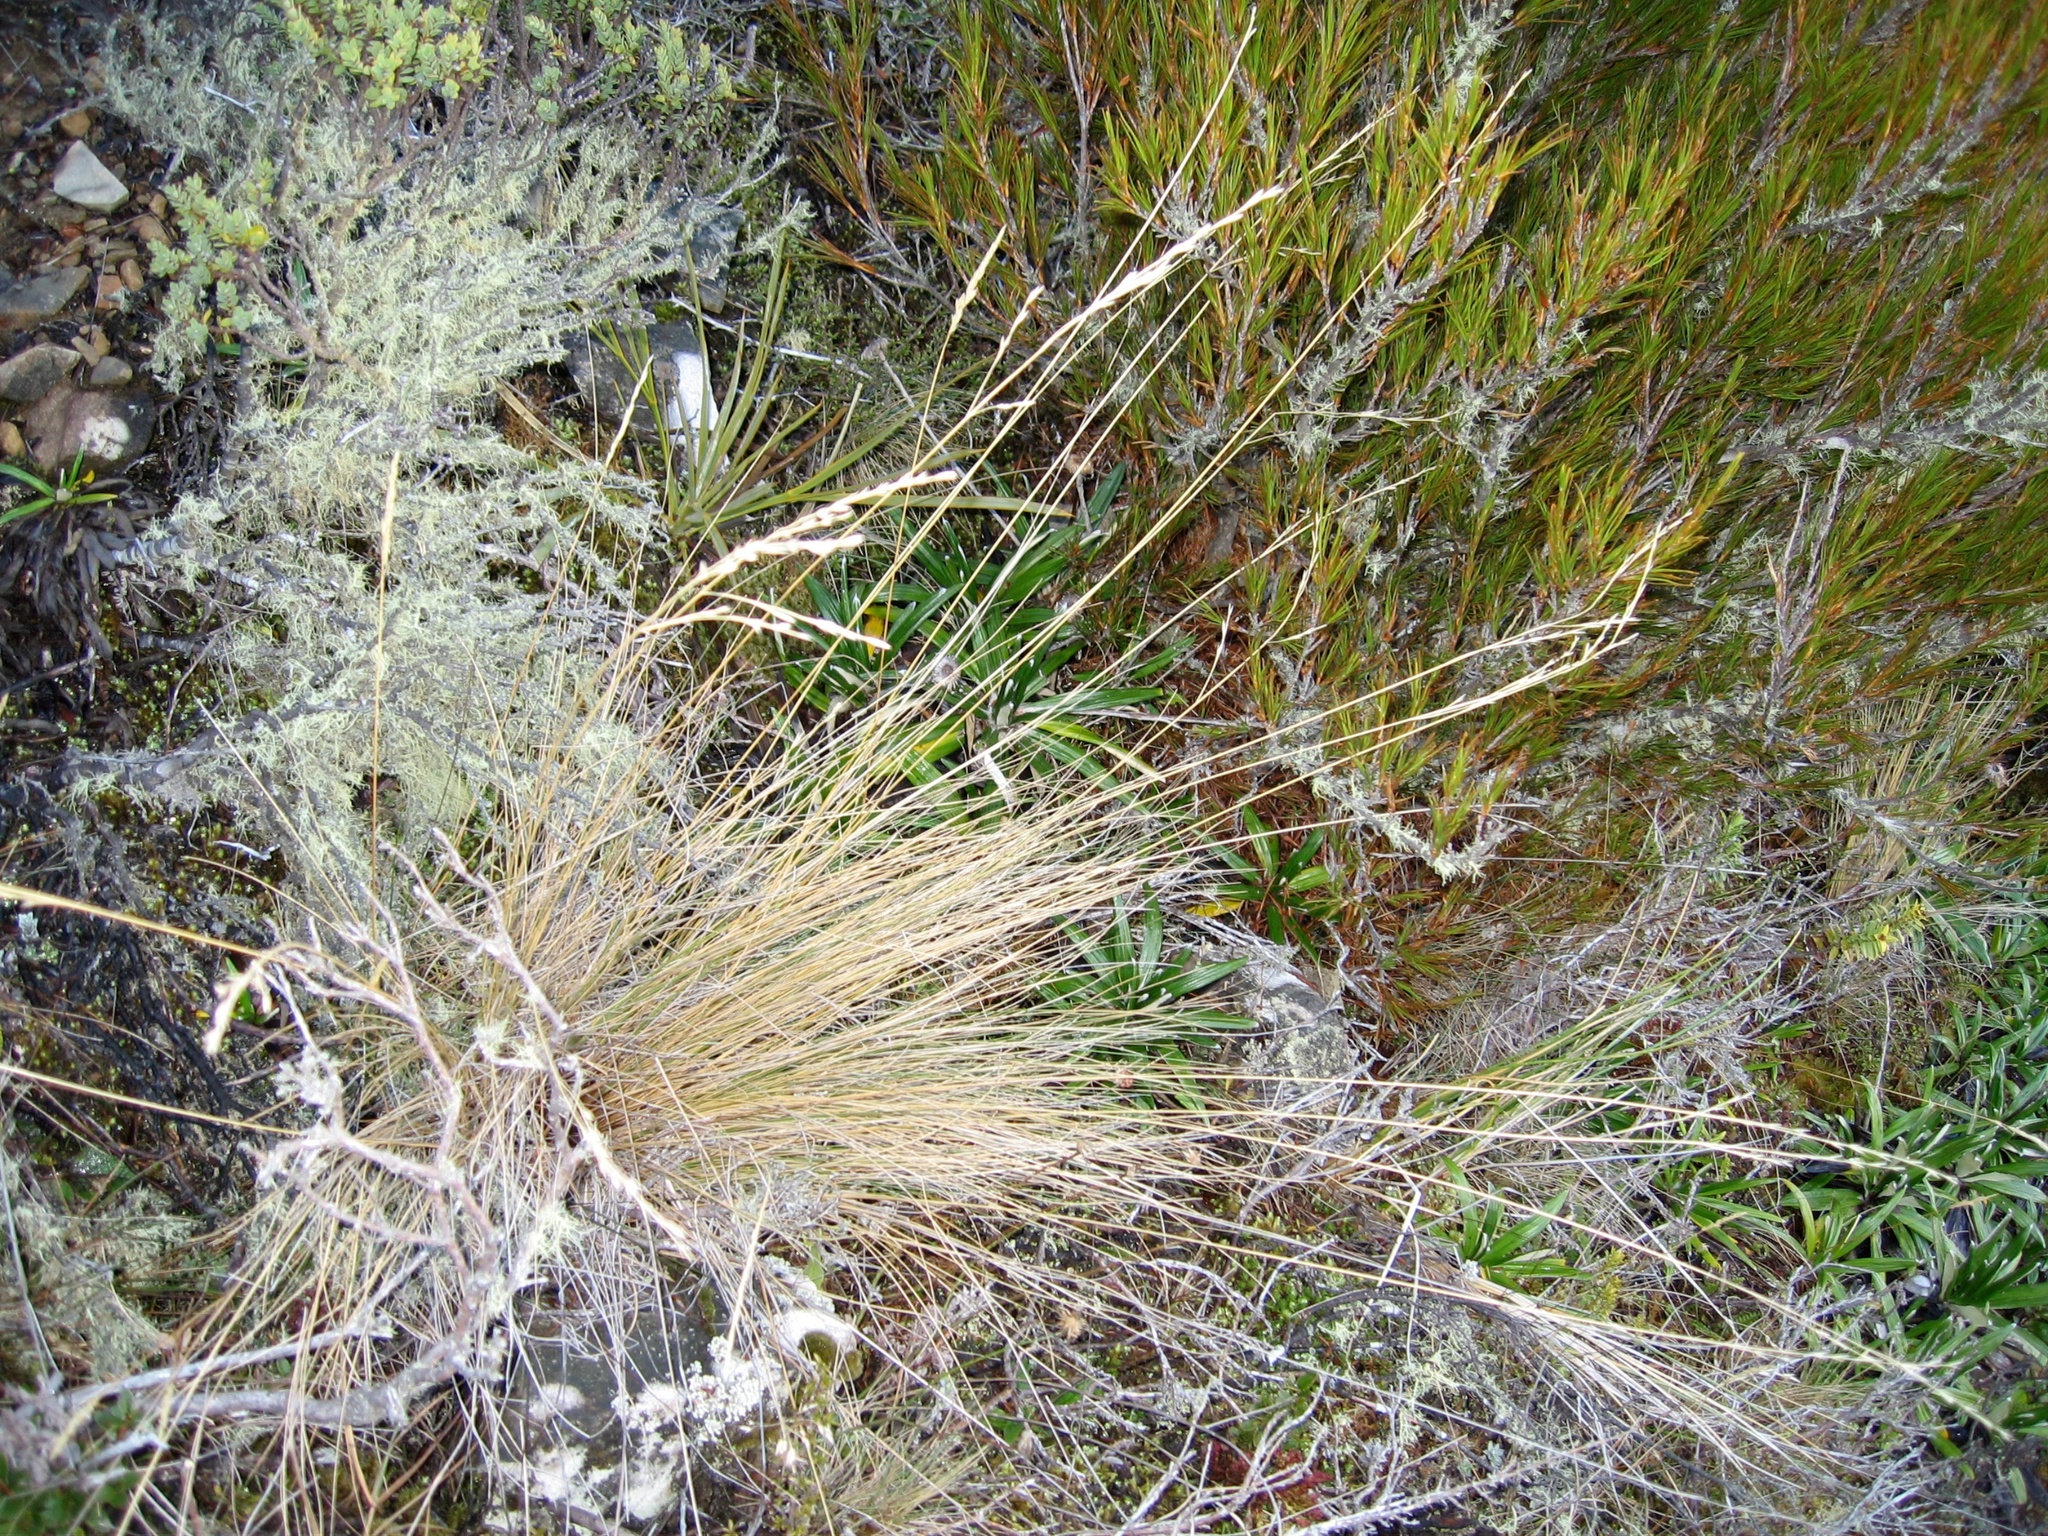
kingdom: Plantae
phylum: Tracheophyta
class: Liliopsida
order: Poales
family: Poaceae
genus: Festuca
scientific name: Festuca matthewsii
